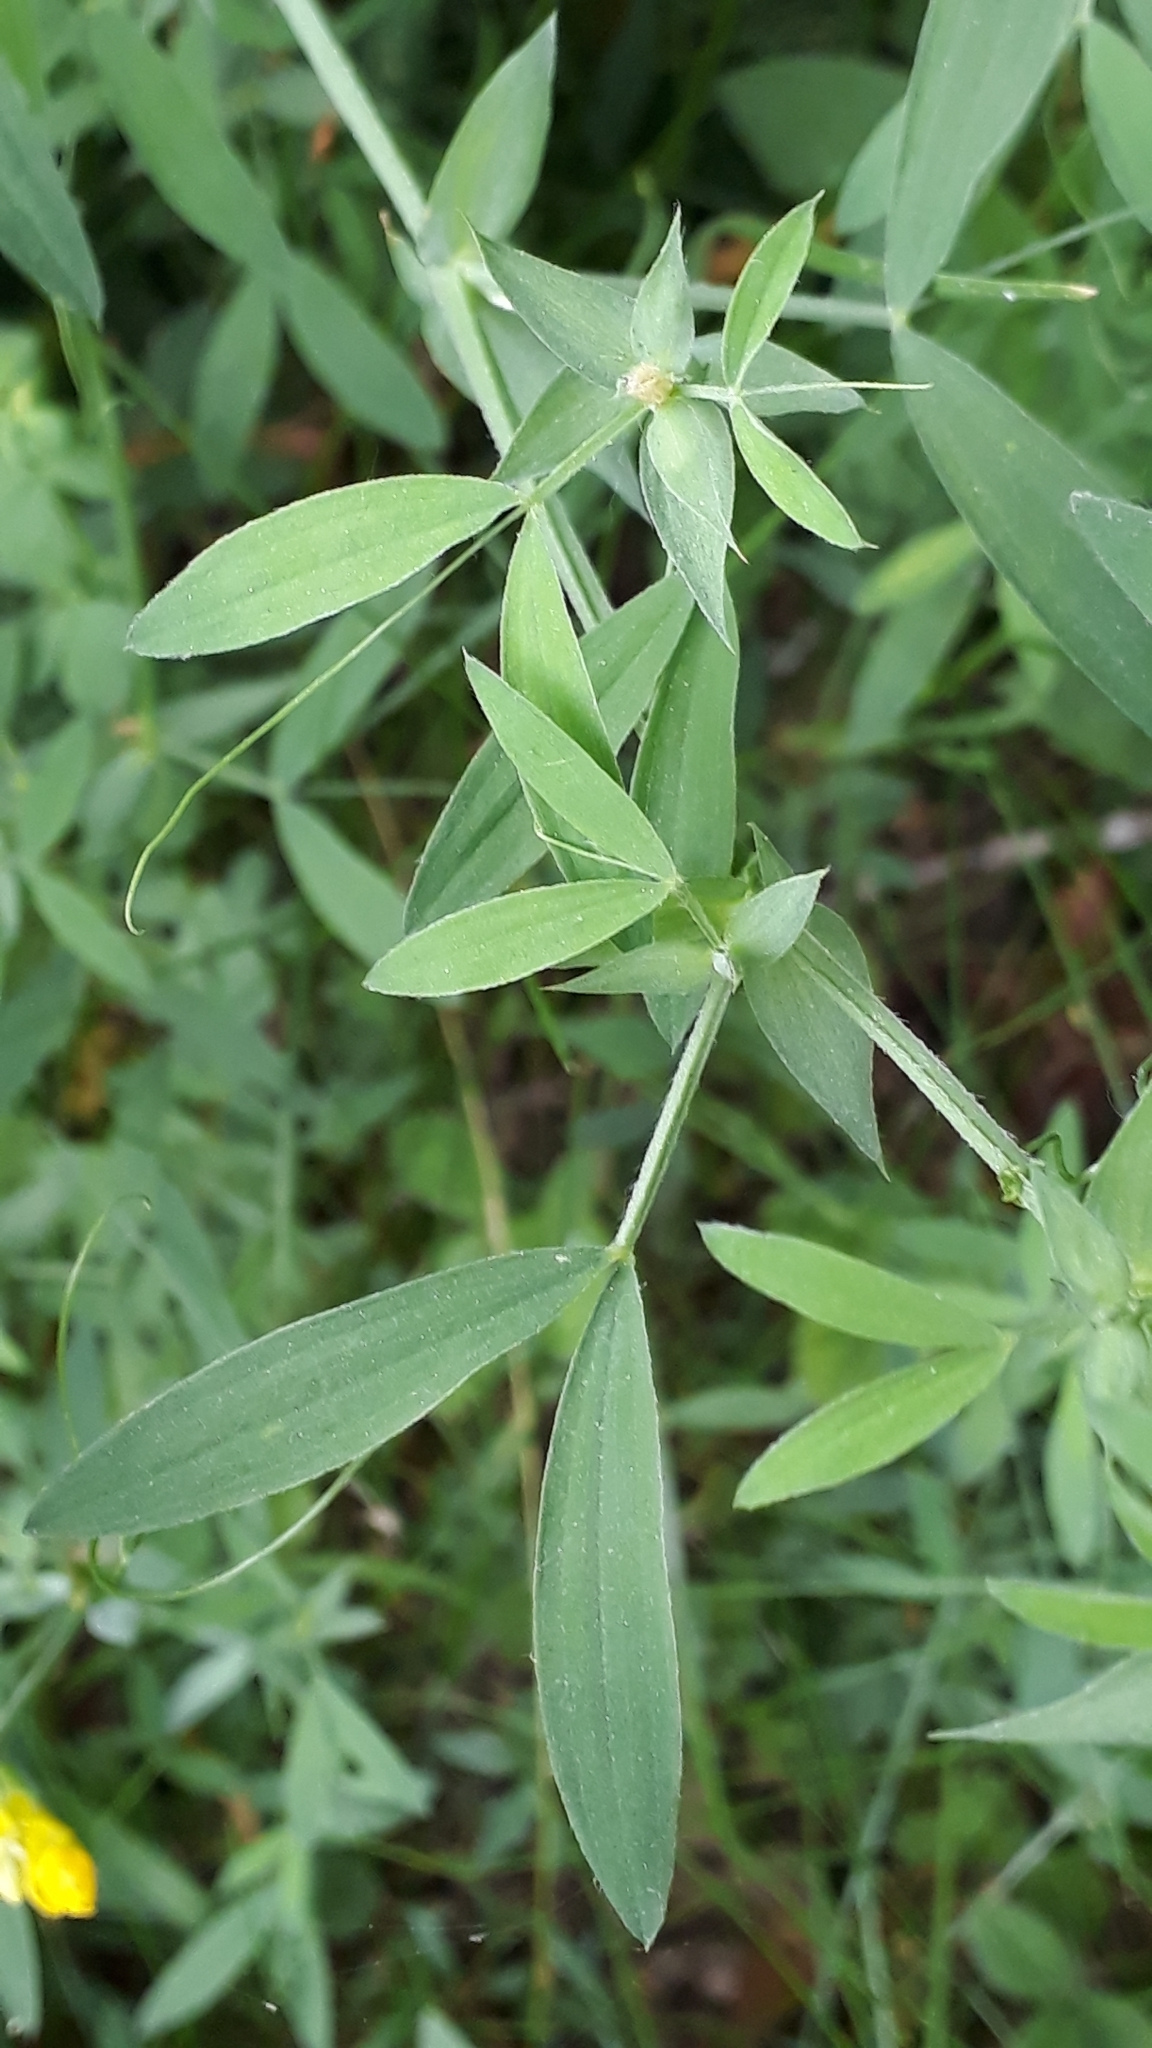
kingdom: Plantae
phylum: Tracheophyta
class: Magnoliopsida
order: Fabales
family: Fabaceae
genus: Lathyrus
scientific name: Lathyrus pratensis
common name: Meadow vetchling
